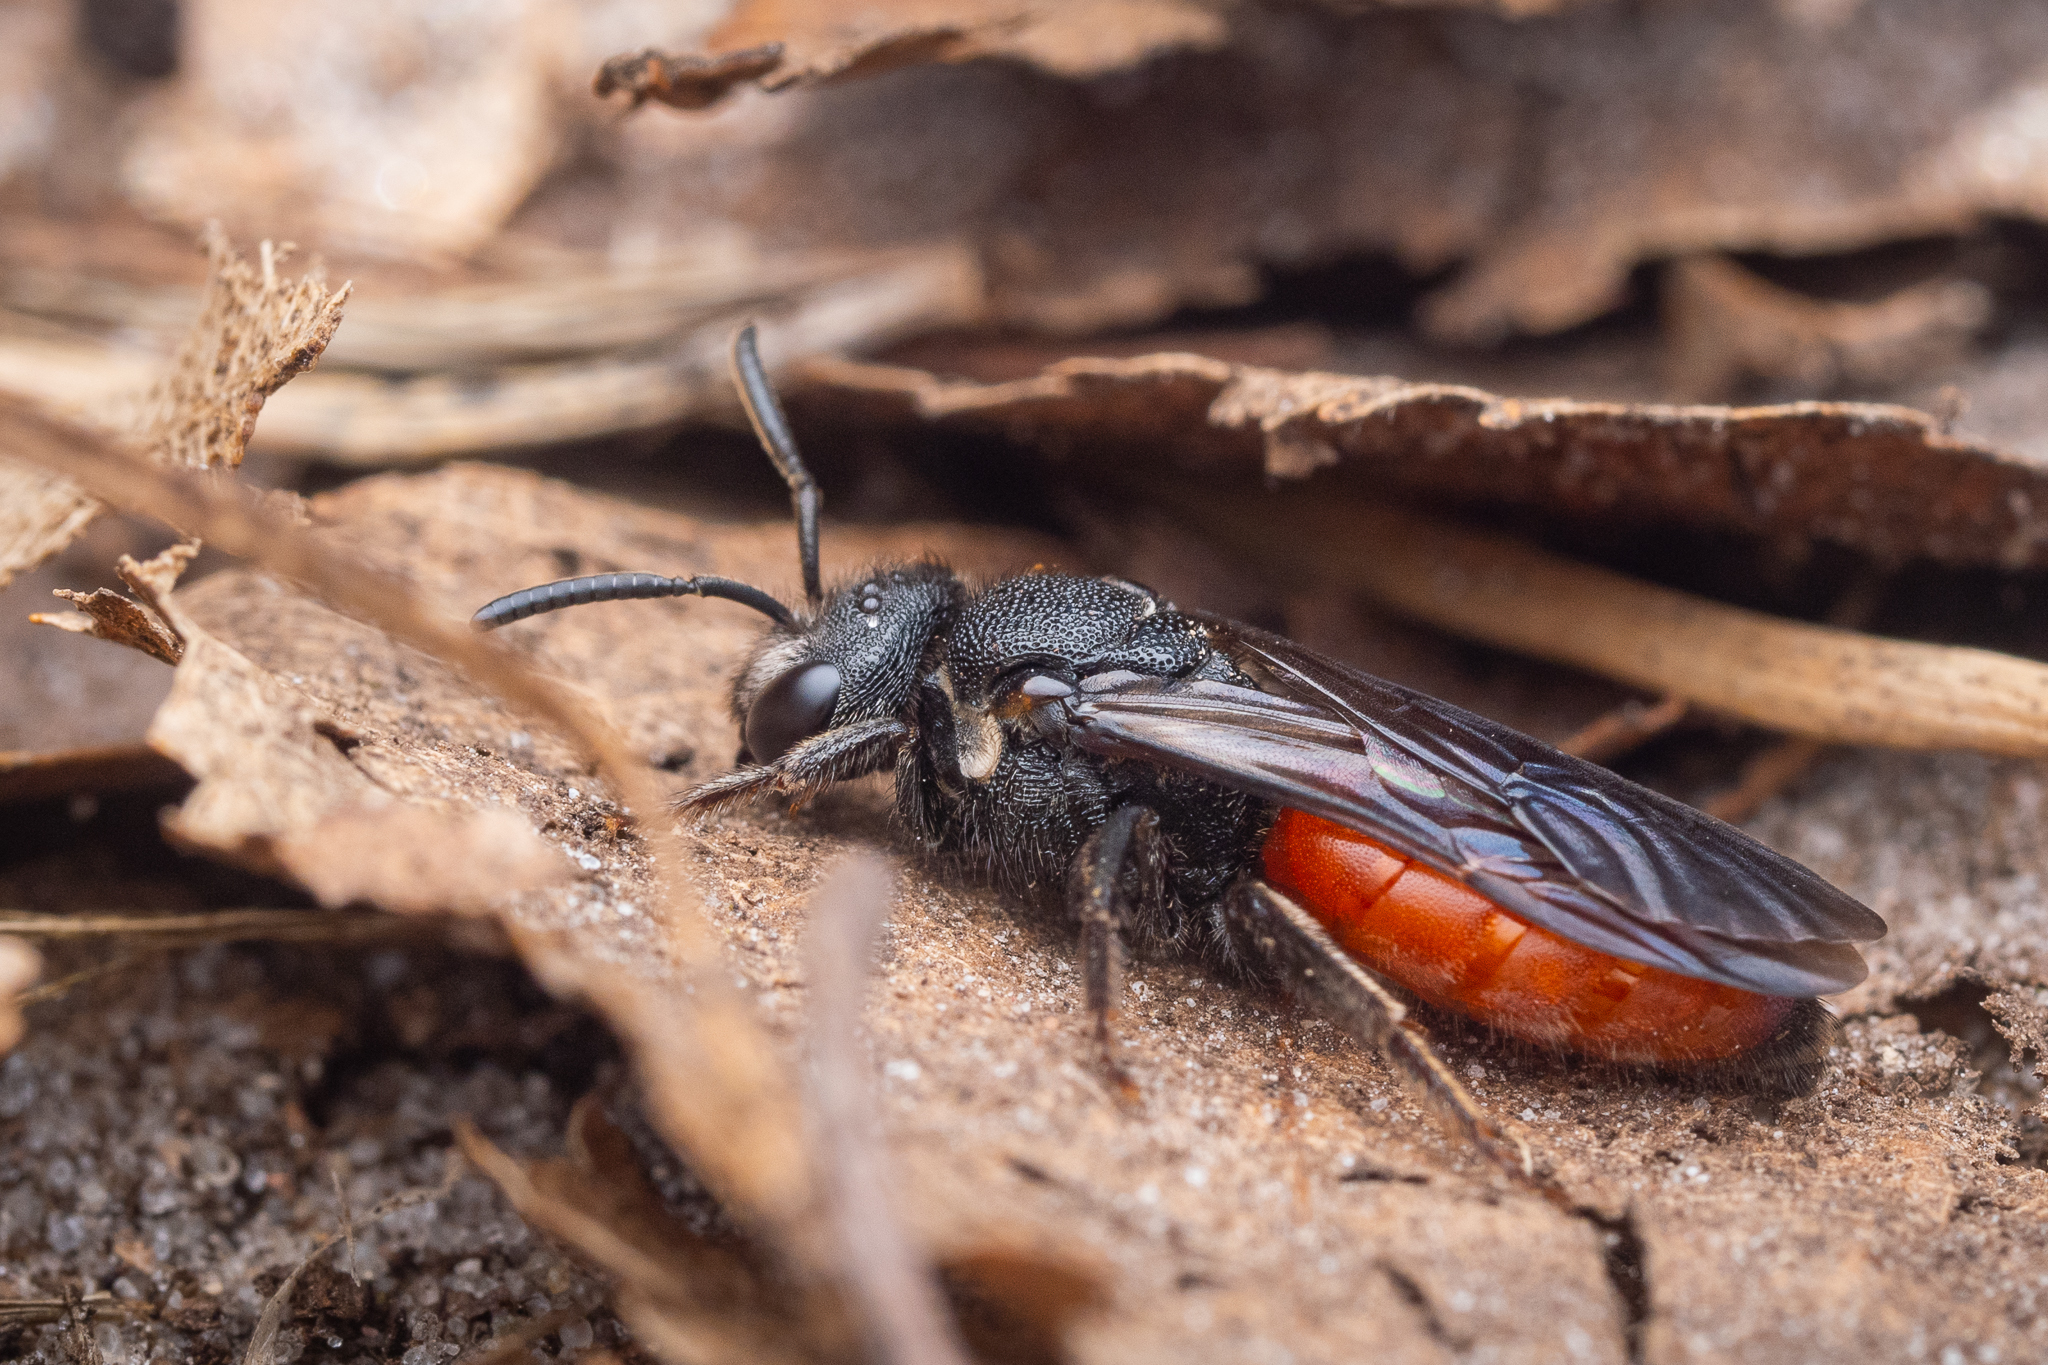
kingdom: Animalia
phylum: Arthropoda
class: Insecta
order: Hymenoptera
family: Halictidae
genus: Sphecodes
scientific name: Sphecodes albilabris
